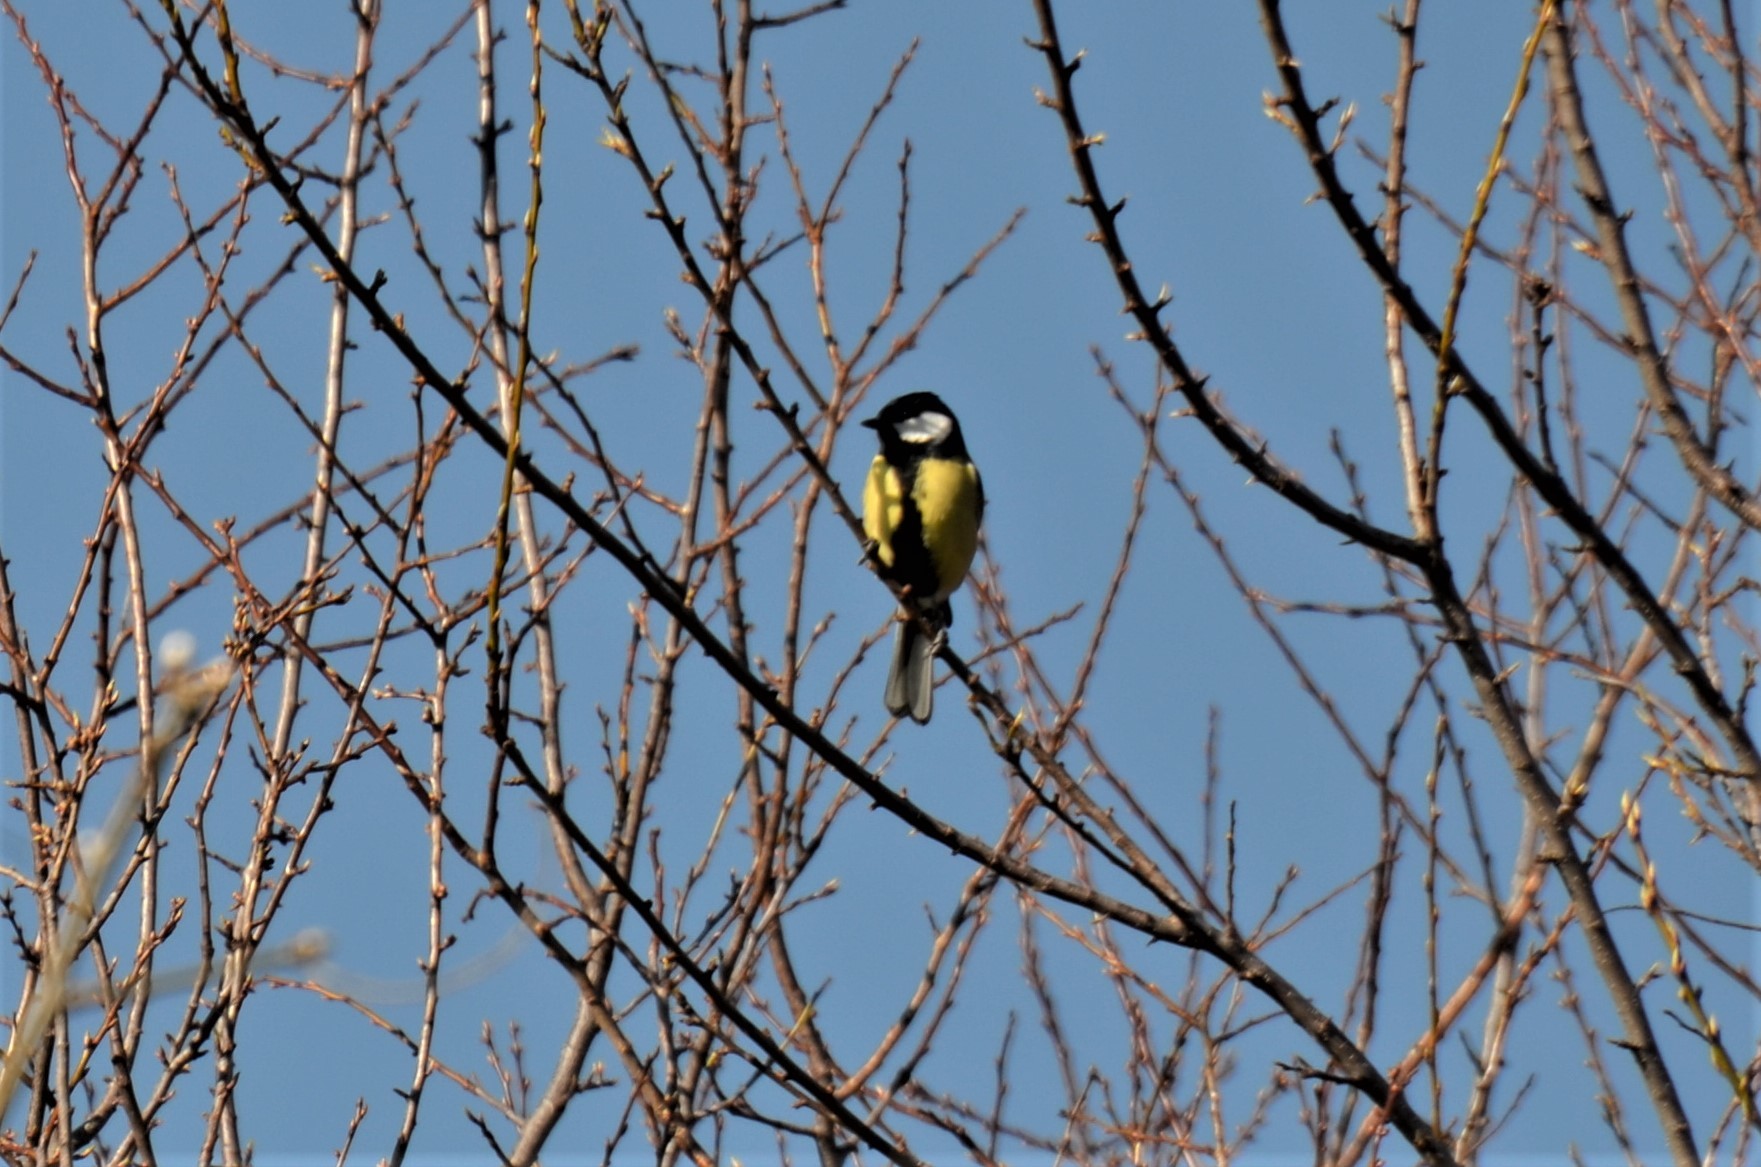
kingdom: Animalia
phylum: Chordata
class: Aves
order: Passeriformes
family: Paridae
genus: Parus
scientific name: Parus major
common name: Great tit
